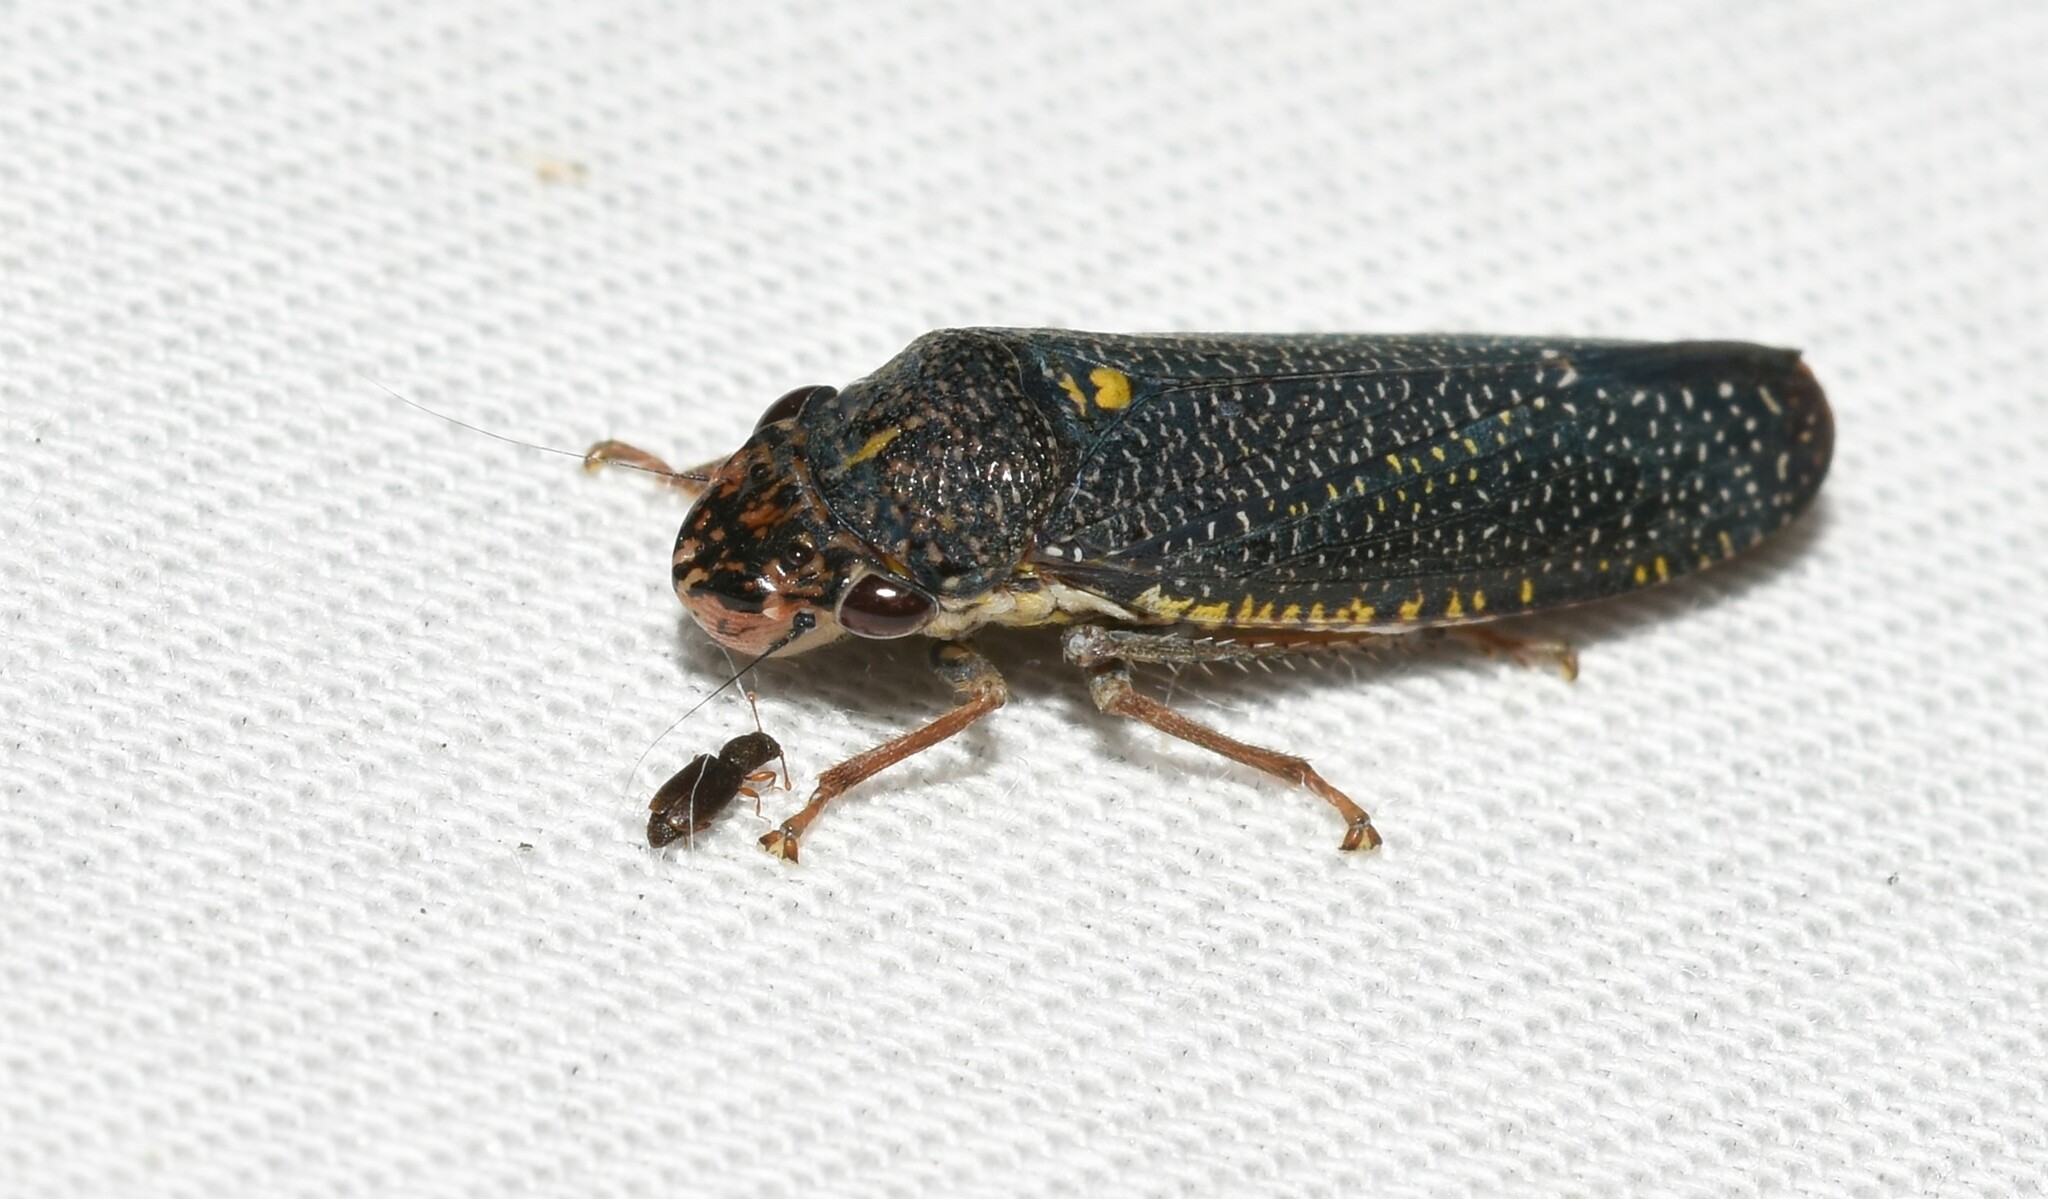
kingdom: Animalia
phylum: Arthropoda
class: Insecta
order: Hemiptera
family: Cicadellidae
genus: Paraulacizes
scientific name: Paraulacizes irrorata
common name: Speckled sharpshooter
